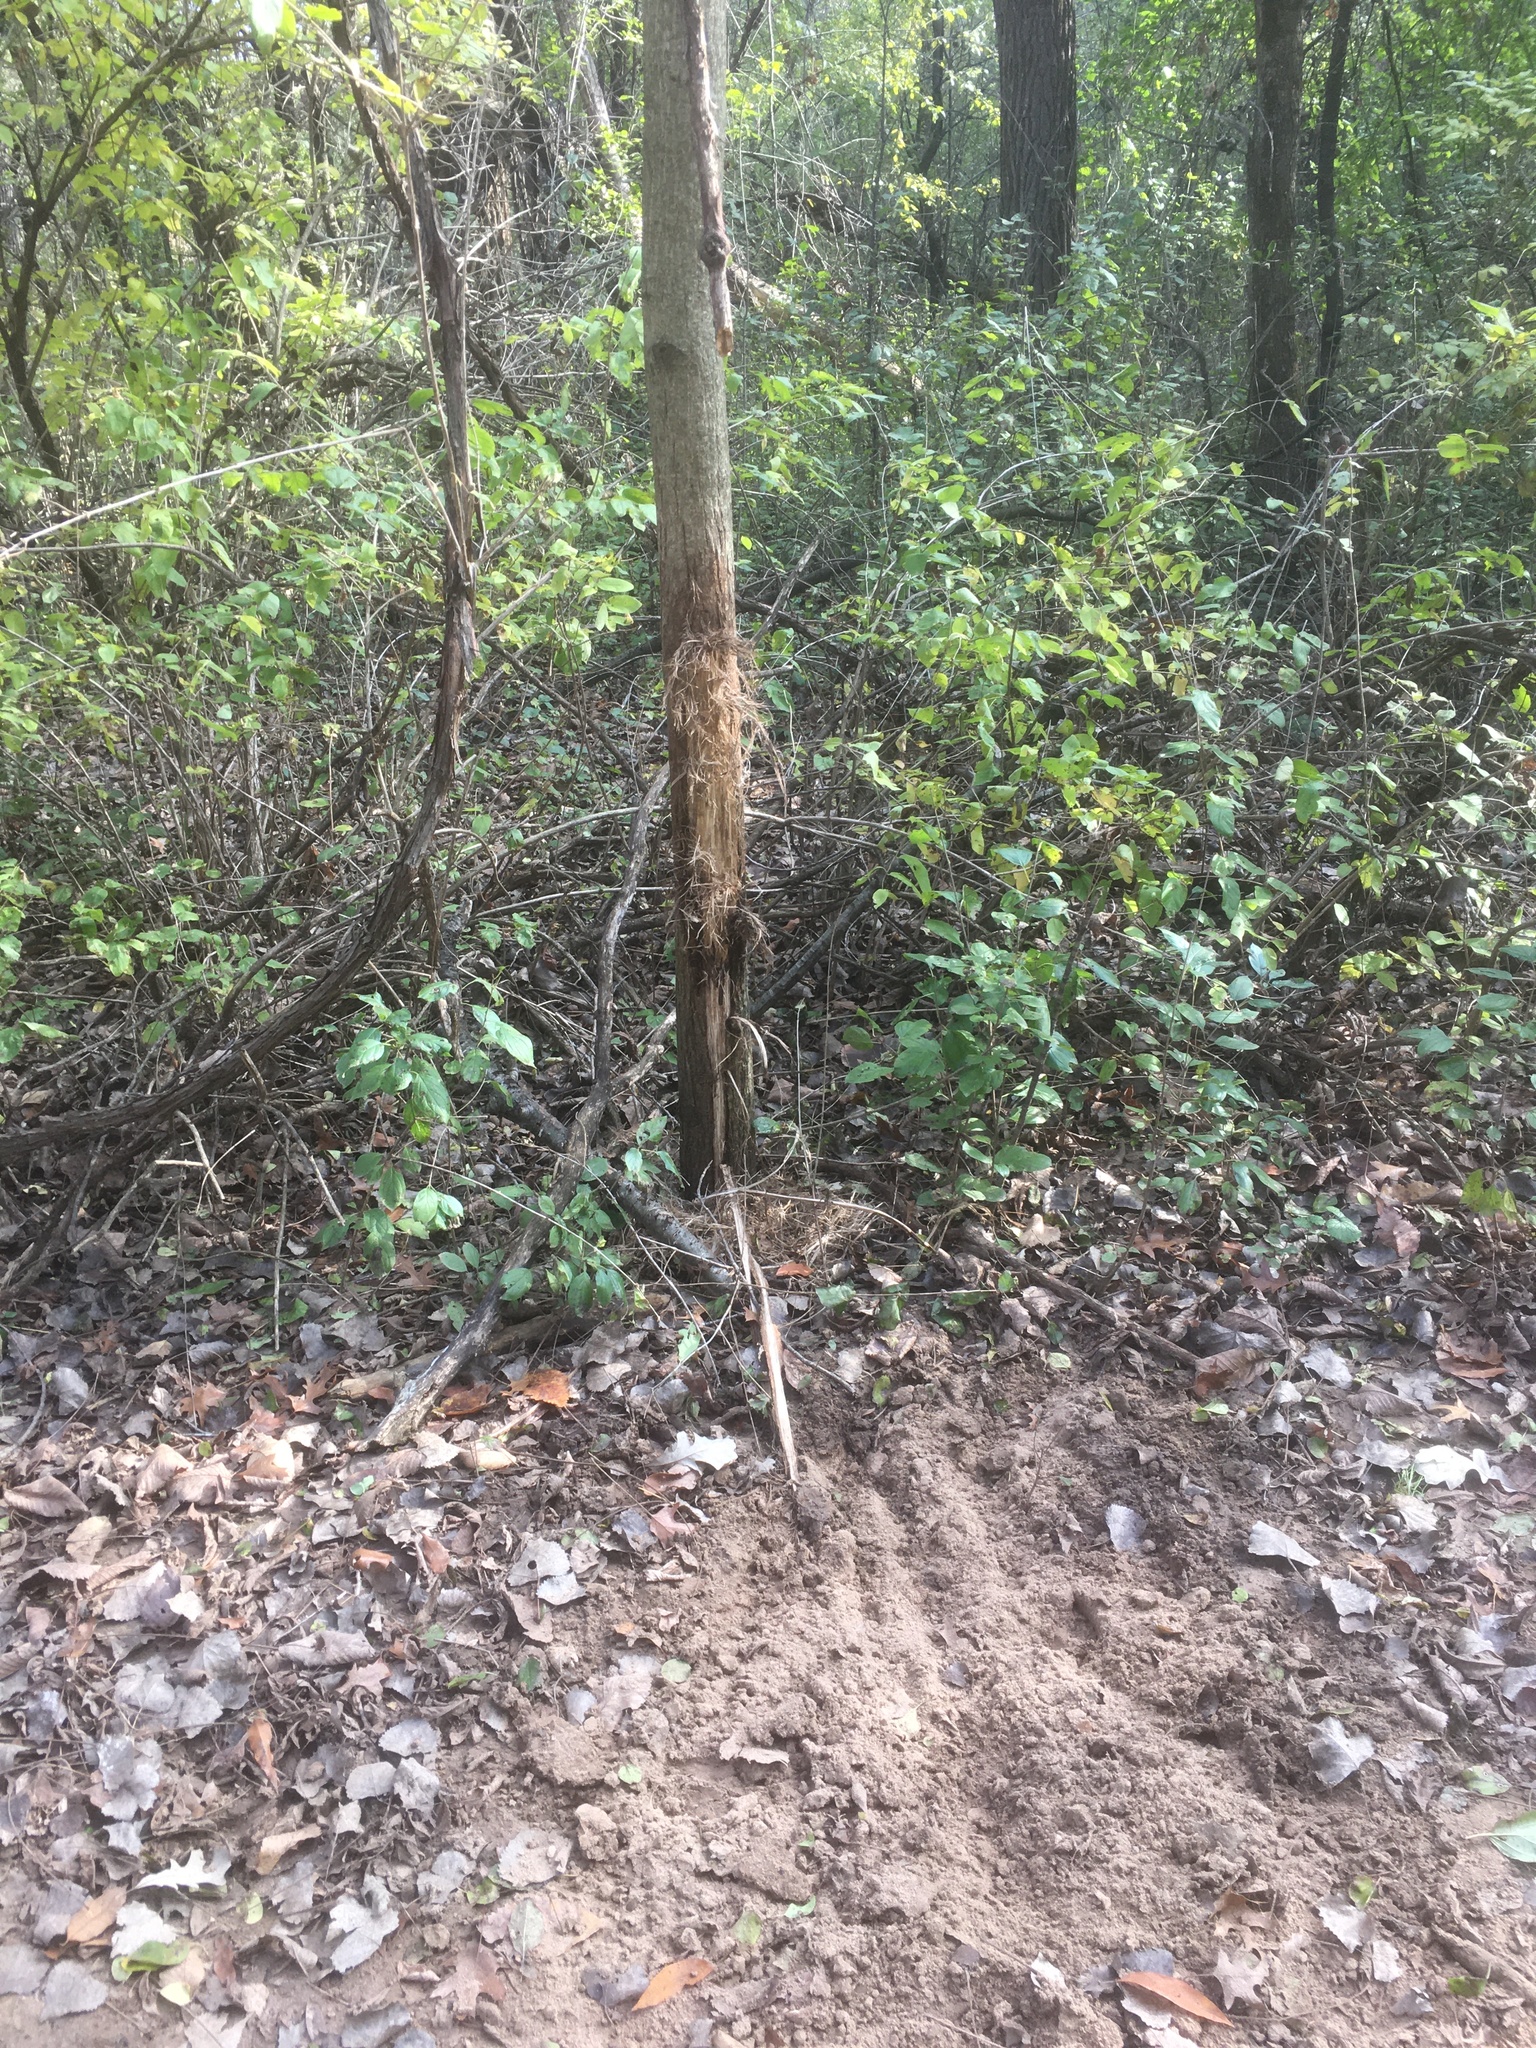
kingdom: Animalia
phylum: Chordata
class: Mammalia
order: Artiodactyla
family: Cervidae
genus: Odocoileus
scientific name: Odocoileus virginianus
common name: White-tailed deer
